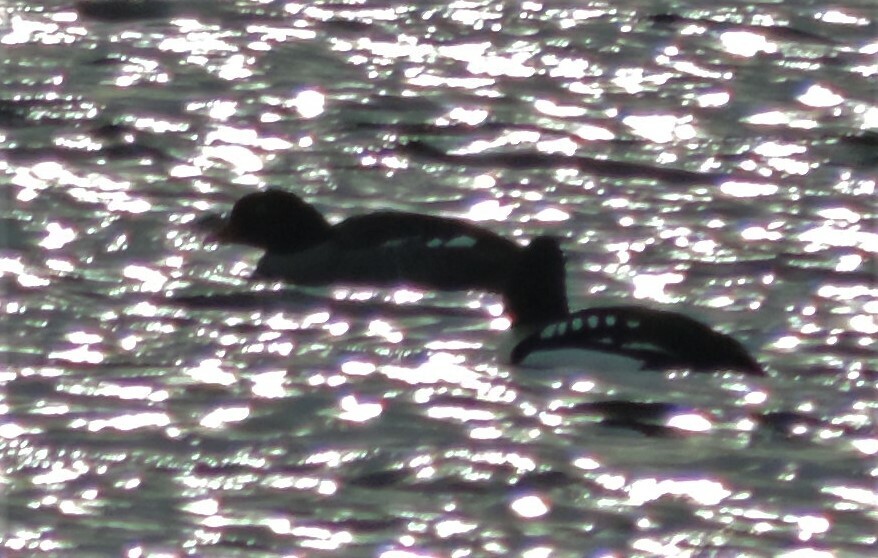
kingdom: Animalia
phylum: Chordata
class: Aves
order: Anseriformes
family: Anatidae
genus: Bucephala
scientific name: Bucephala islandica
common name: Barrow's goldeneye
